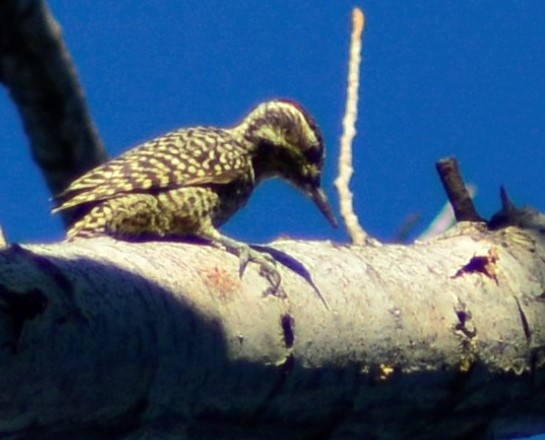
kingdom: Animalia
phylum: Chordata
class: Aves
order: Piciformes
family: Picidae
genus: Veniliornis
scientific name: Veniliornis mixtus
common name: Checkered woodpecker
